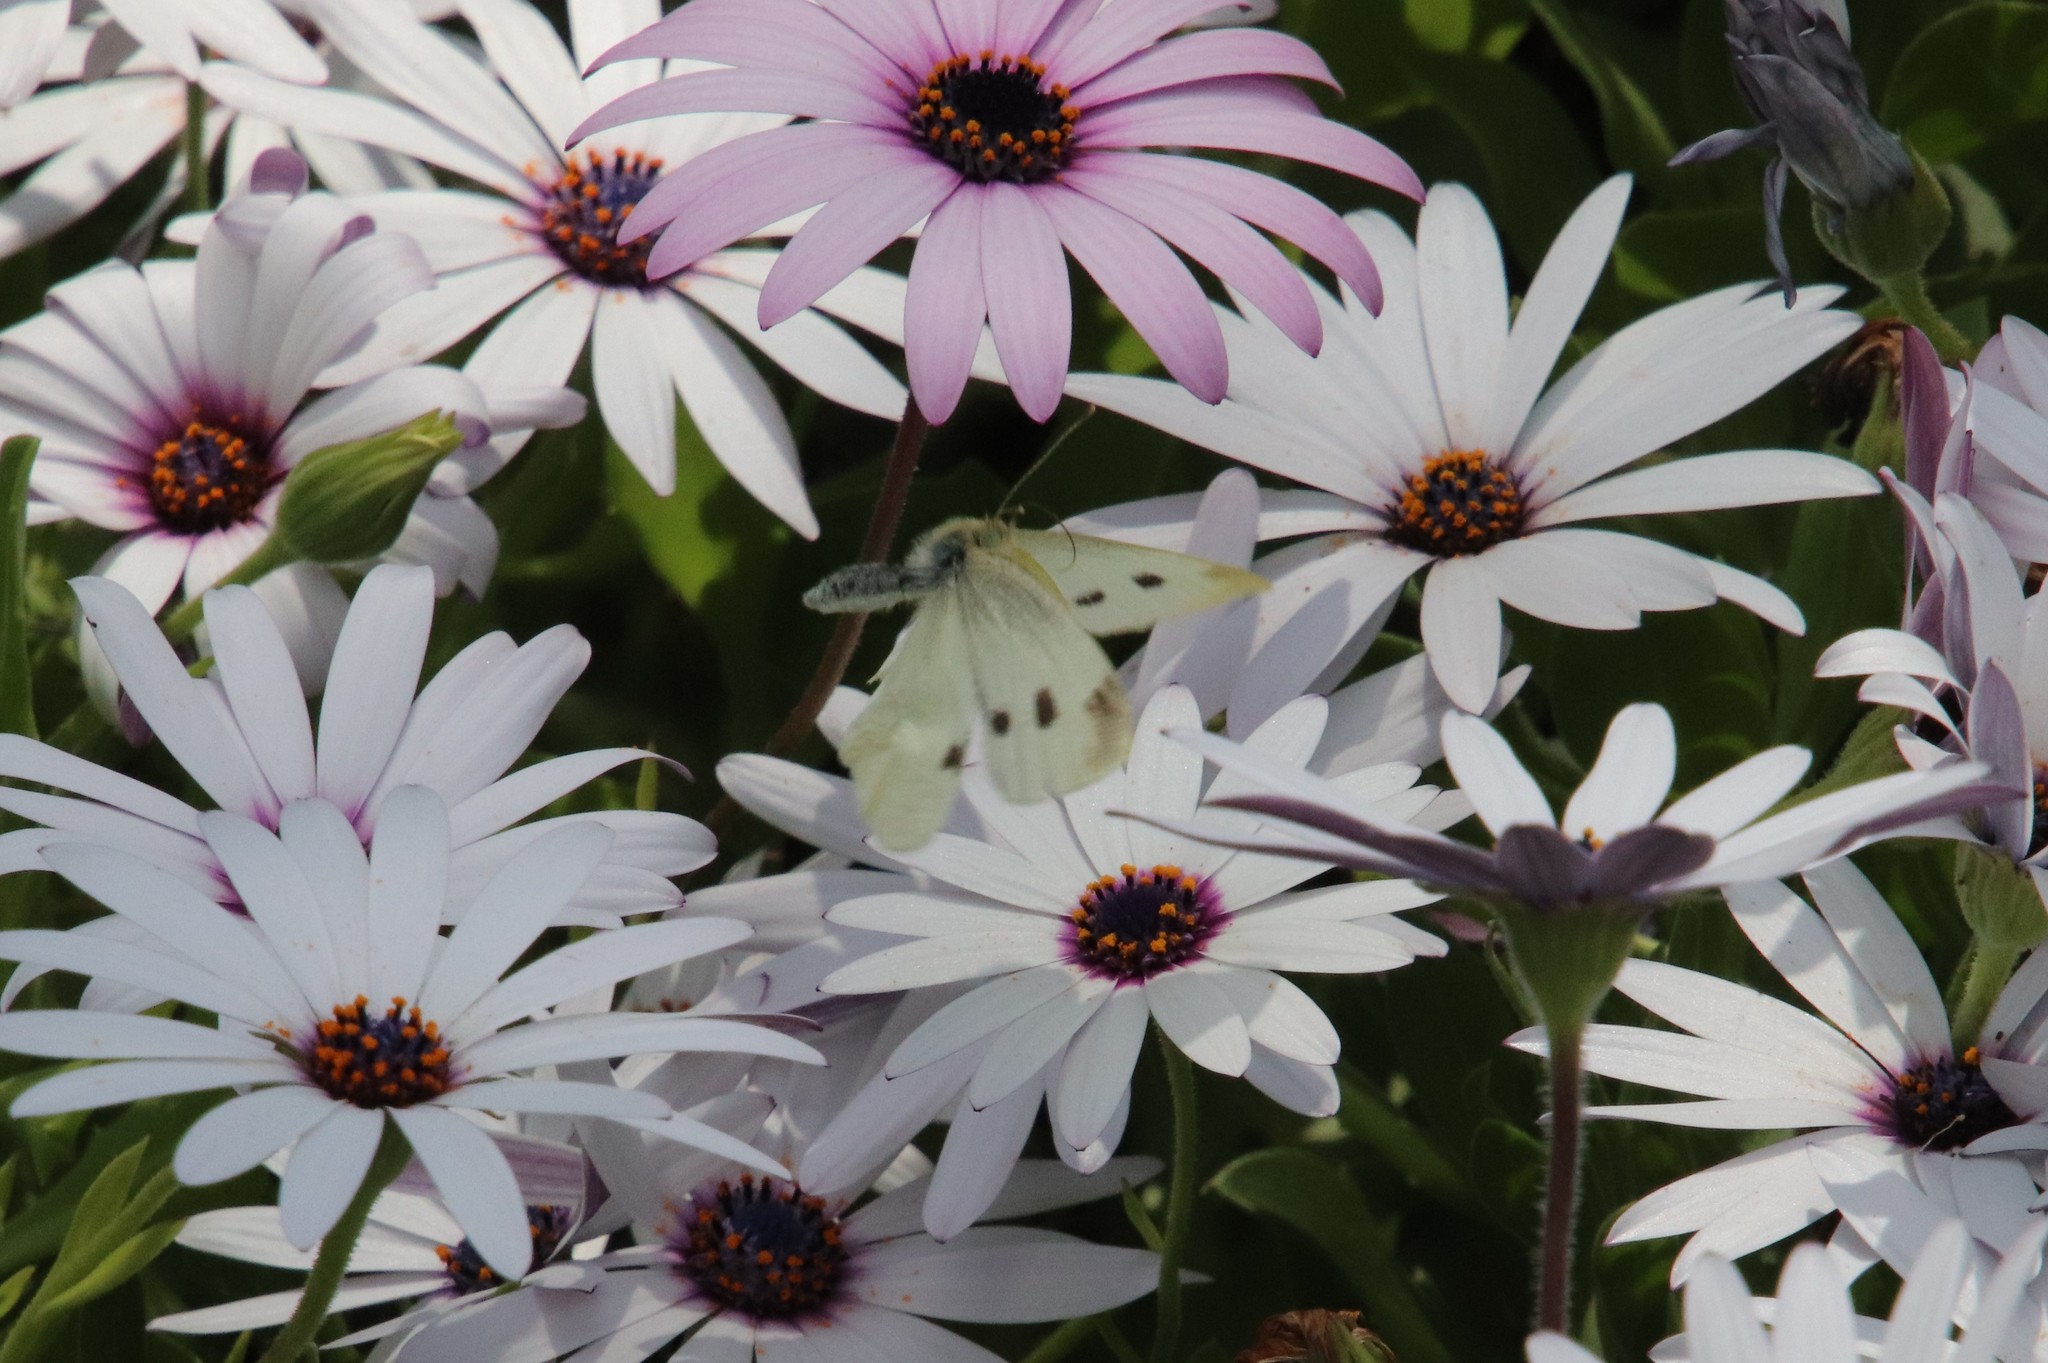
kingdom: Animalia
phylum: Arthropoda
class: Insecta
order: Lepidoptera
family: Pieridae
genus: Pieris
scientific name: Pieris rapae
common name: Small white
